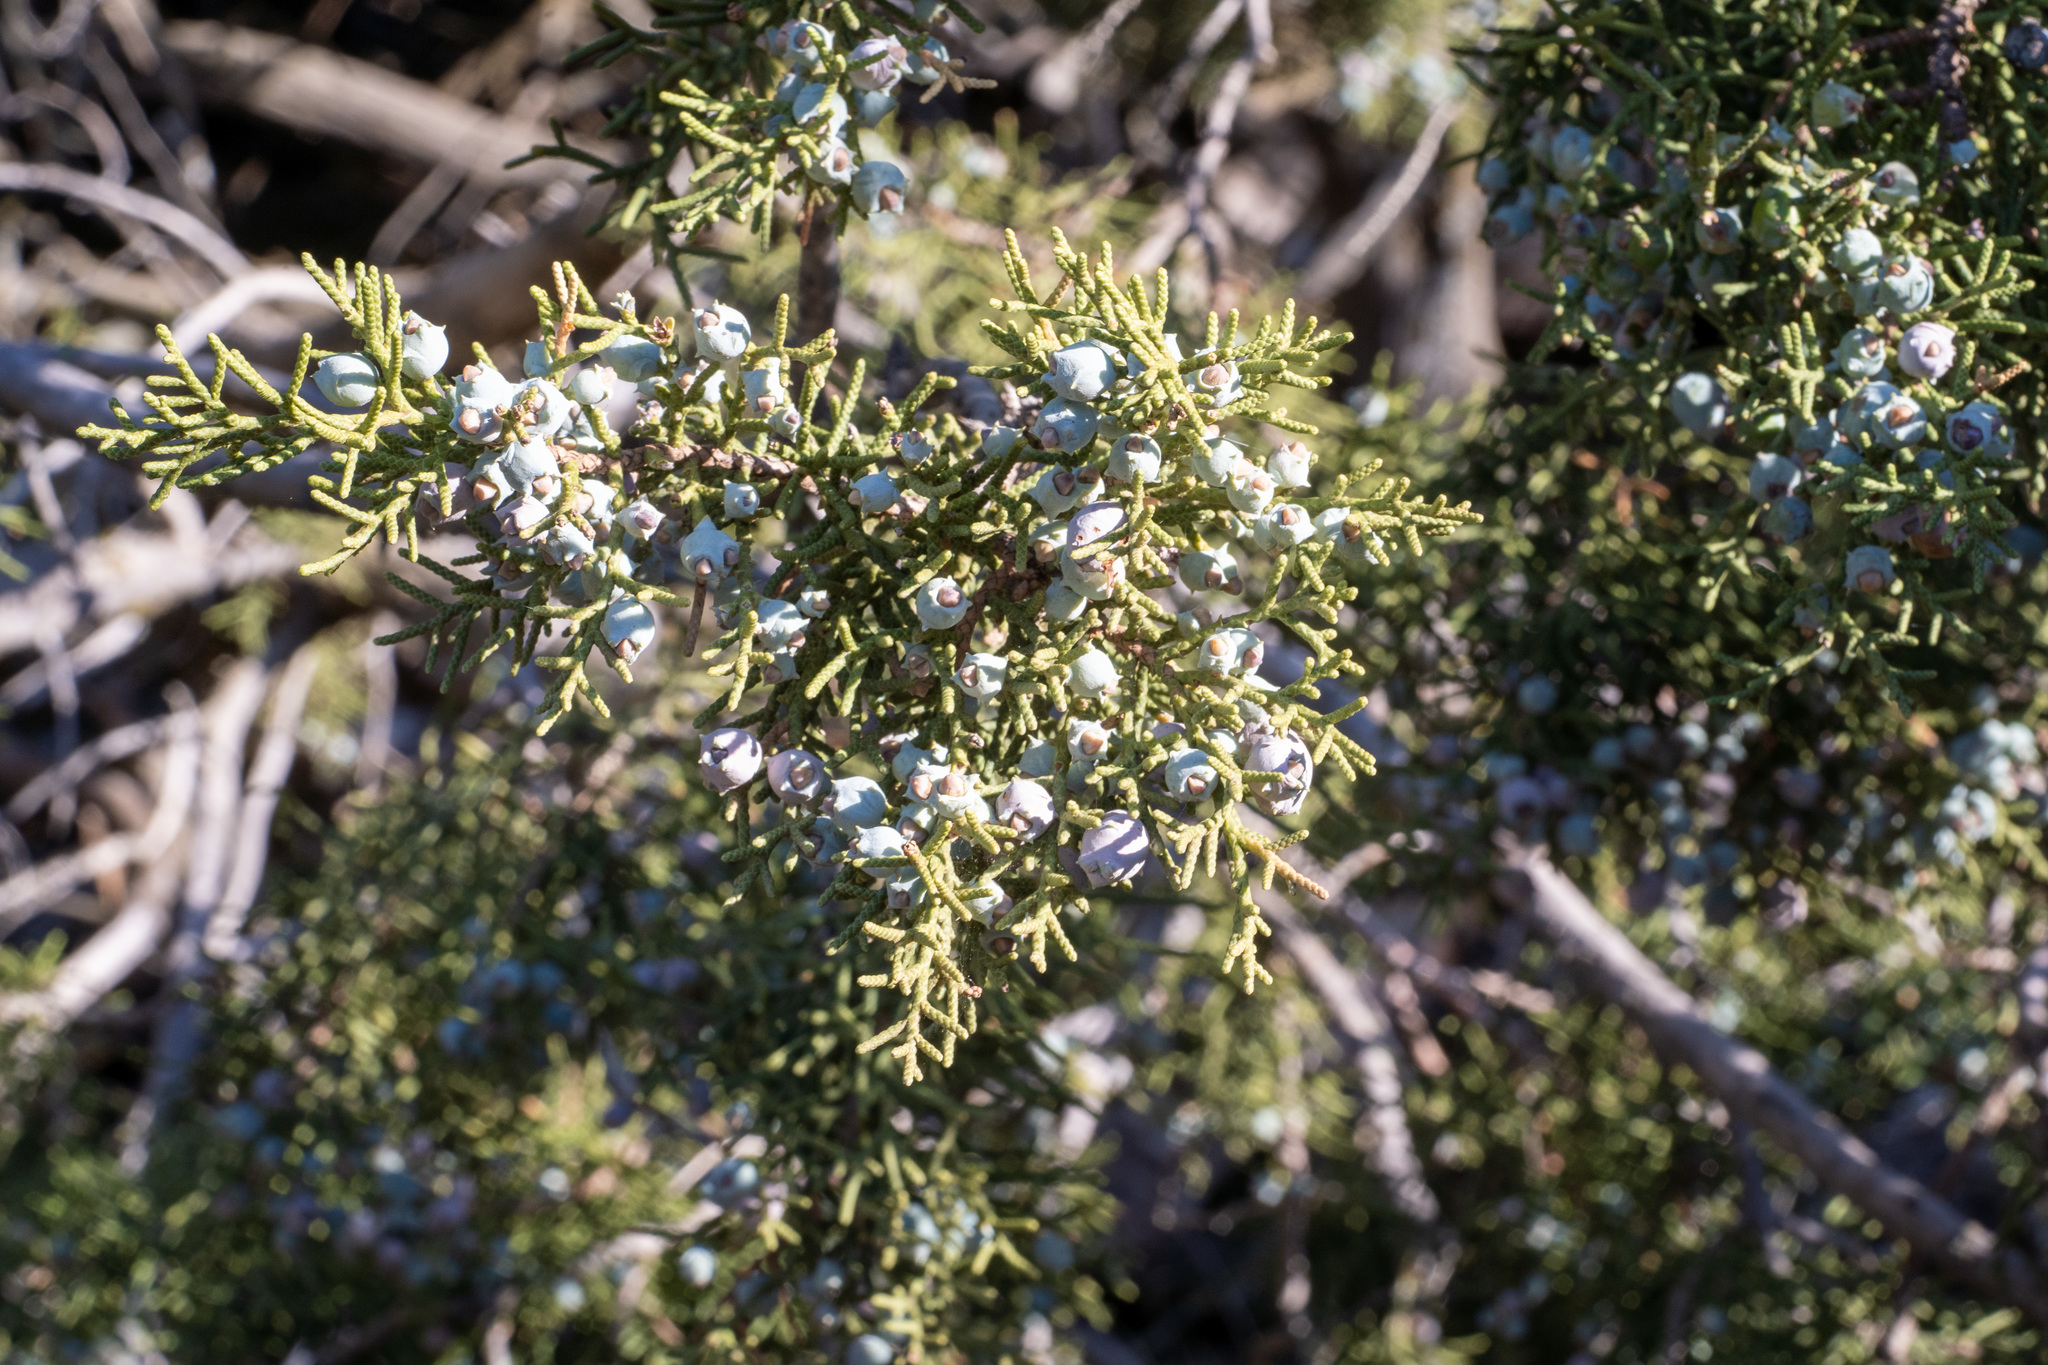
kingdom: Plantae
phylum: Tracheophyta
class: Pinopsida
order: Pinales
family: Cupressaceae
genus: Juniperus
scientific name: Juniperus californica
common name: California juniper
